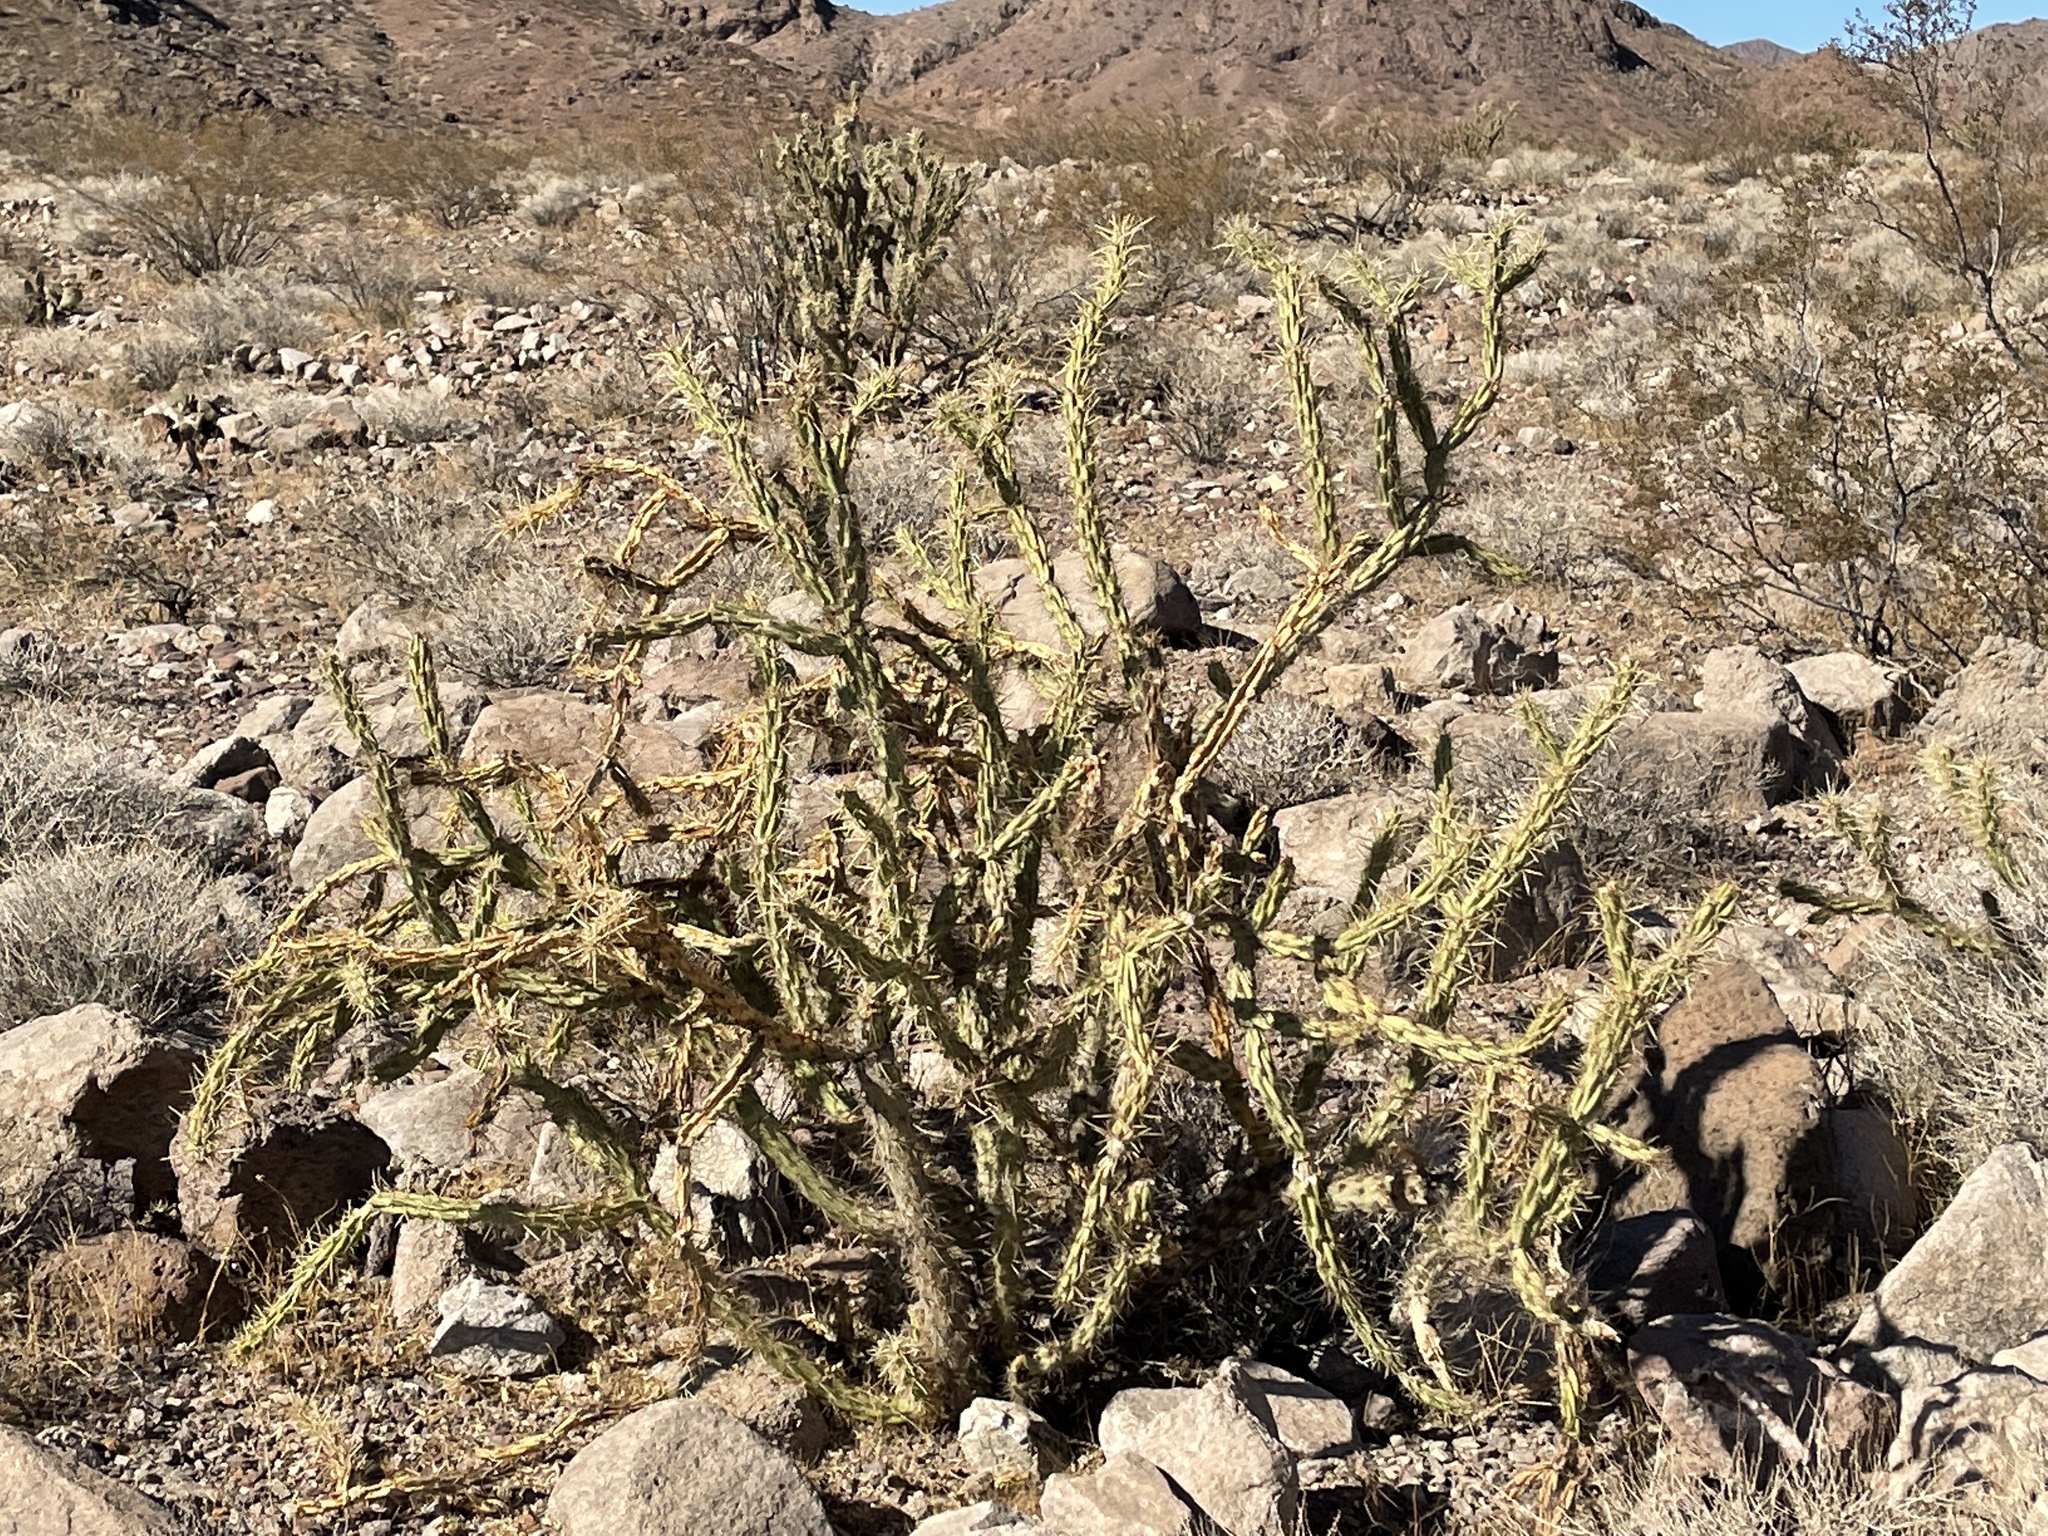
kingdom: Plantae
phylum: Tracheophyta
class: Magnoliopsida
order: Caryophyllales
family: Cactaceae
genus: Cylindropuntia
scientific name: Cylindropuntia acanthocarpa
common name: Buckhorn cholla
